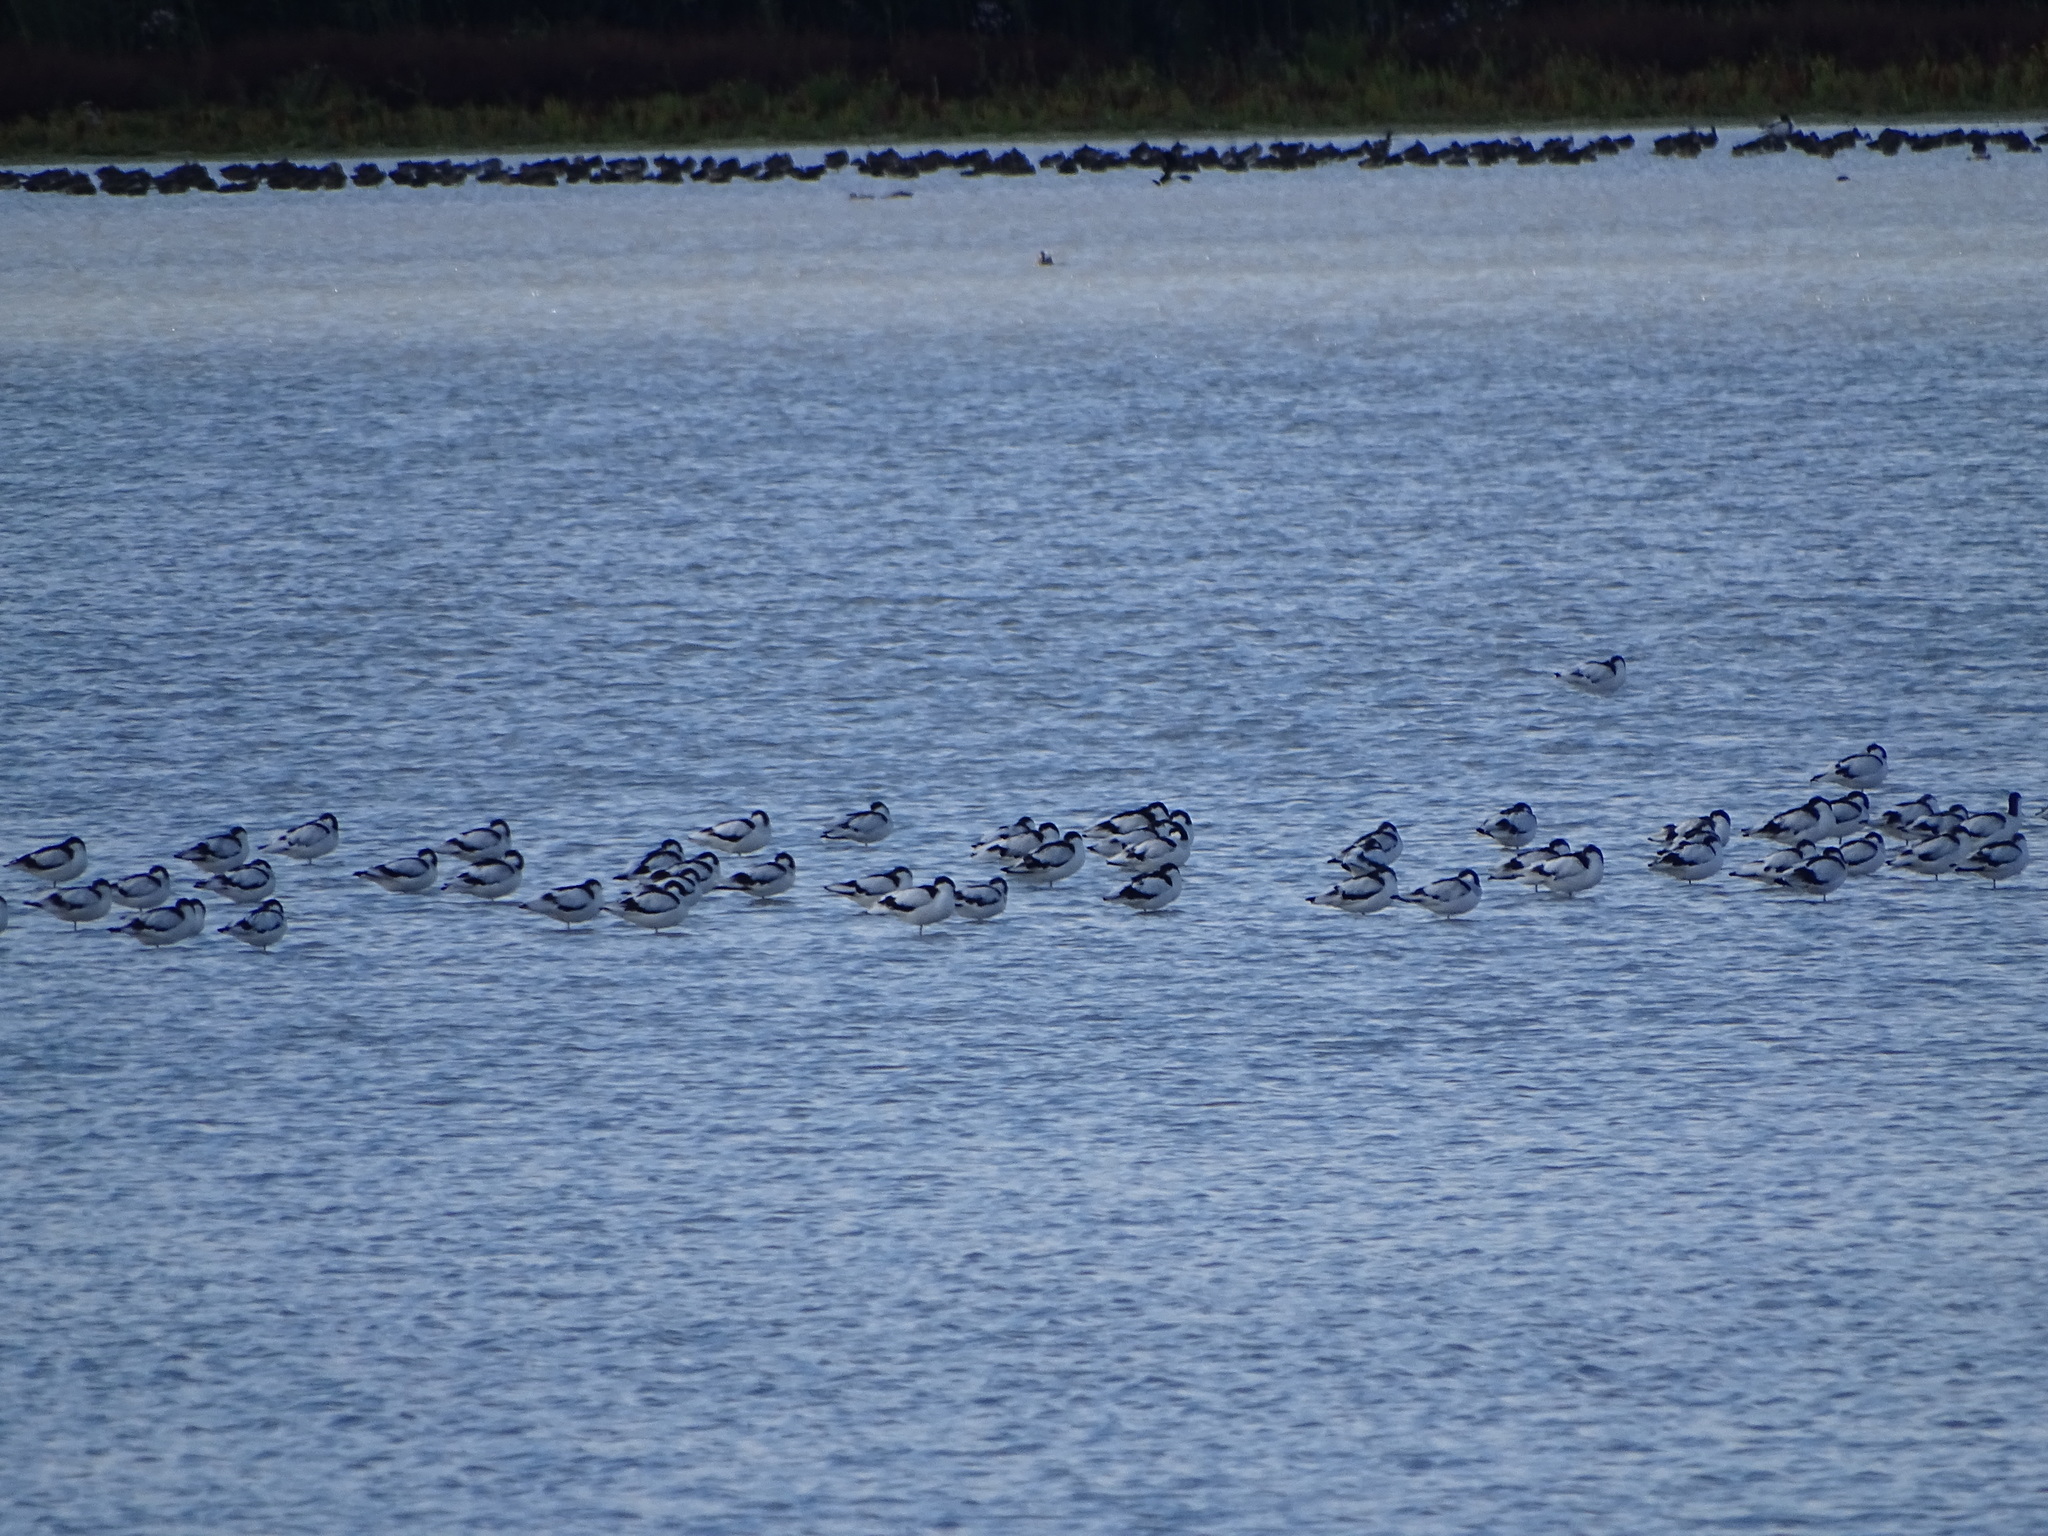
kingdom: Animalia
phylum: Chordata
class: Aves
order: Charadriiformes
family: Recurvirostridae
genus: Recurvirostra
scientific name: Recurvirostra avosetta
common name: Pied avocet
